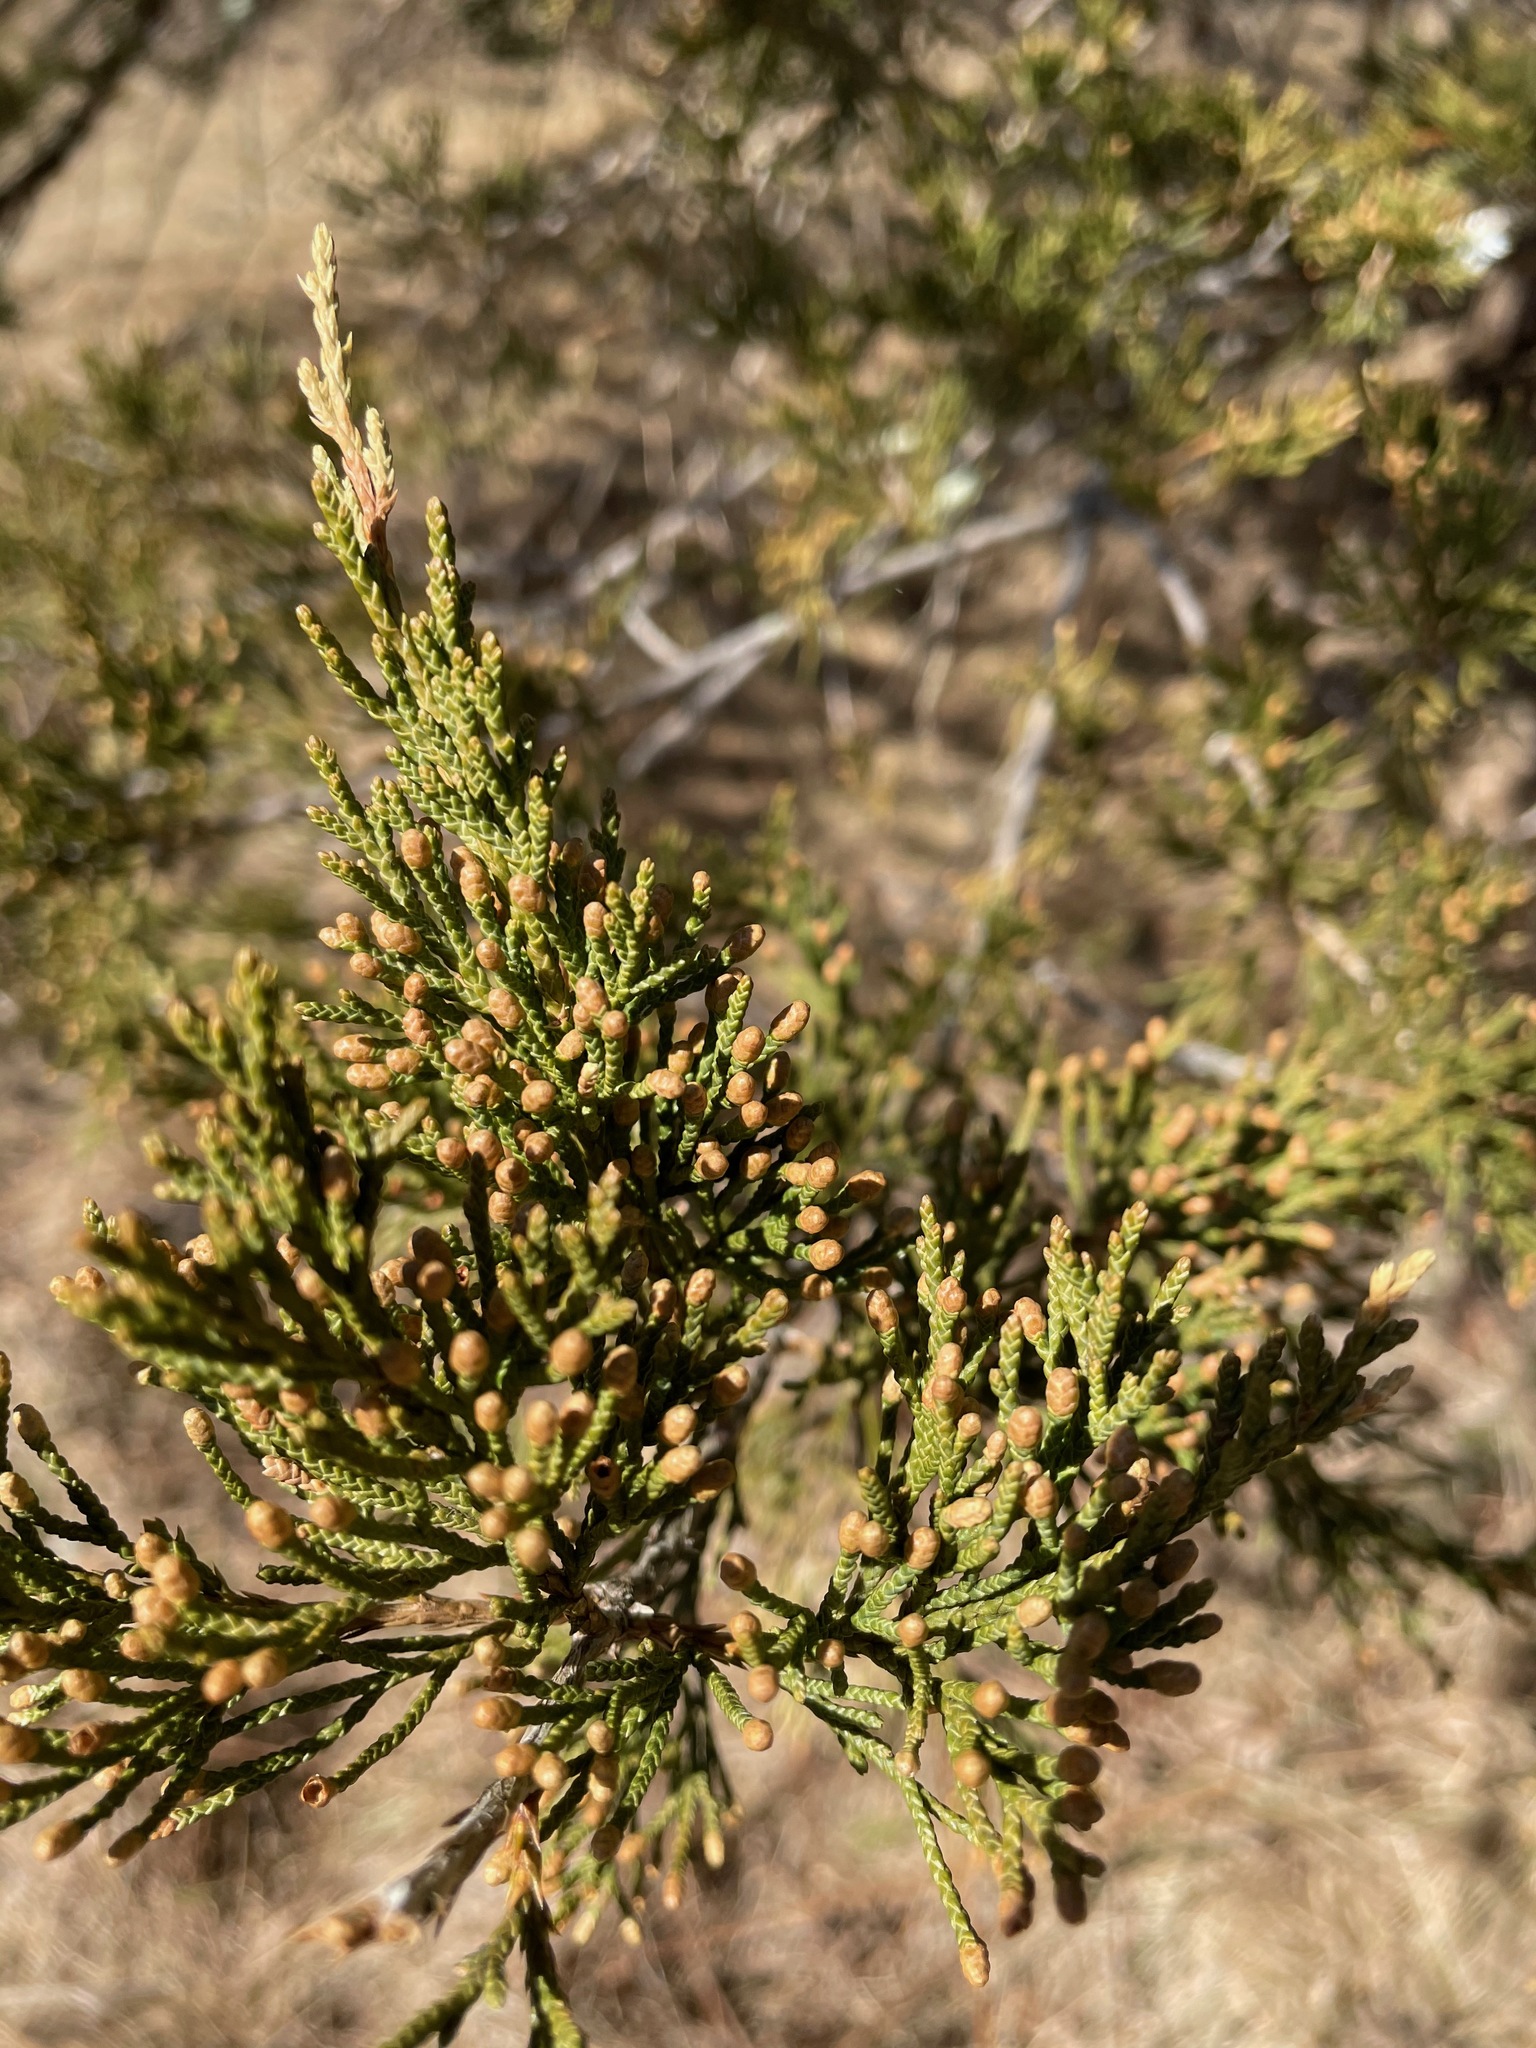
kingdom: Plantae
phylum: Tracheophyta
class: Pinopsida
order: Pinales
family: Cupressaceae
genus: Juniperus
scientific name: Juniperus virginiana
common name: Red juniper
